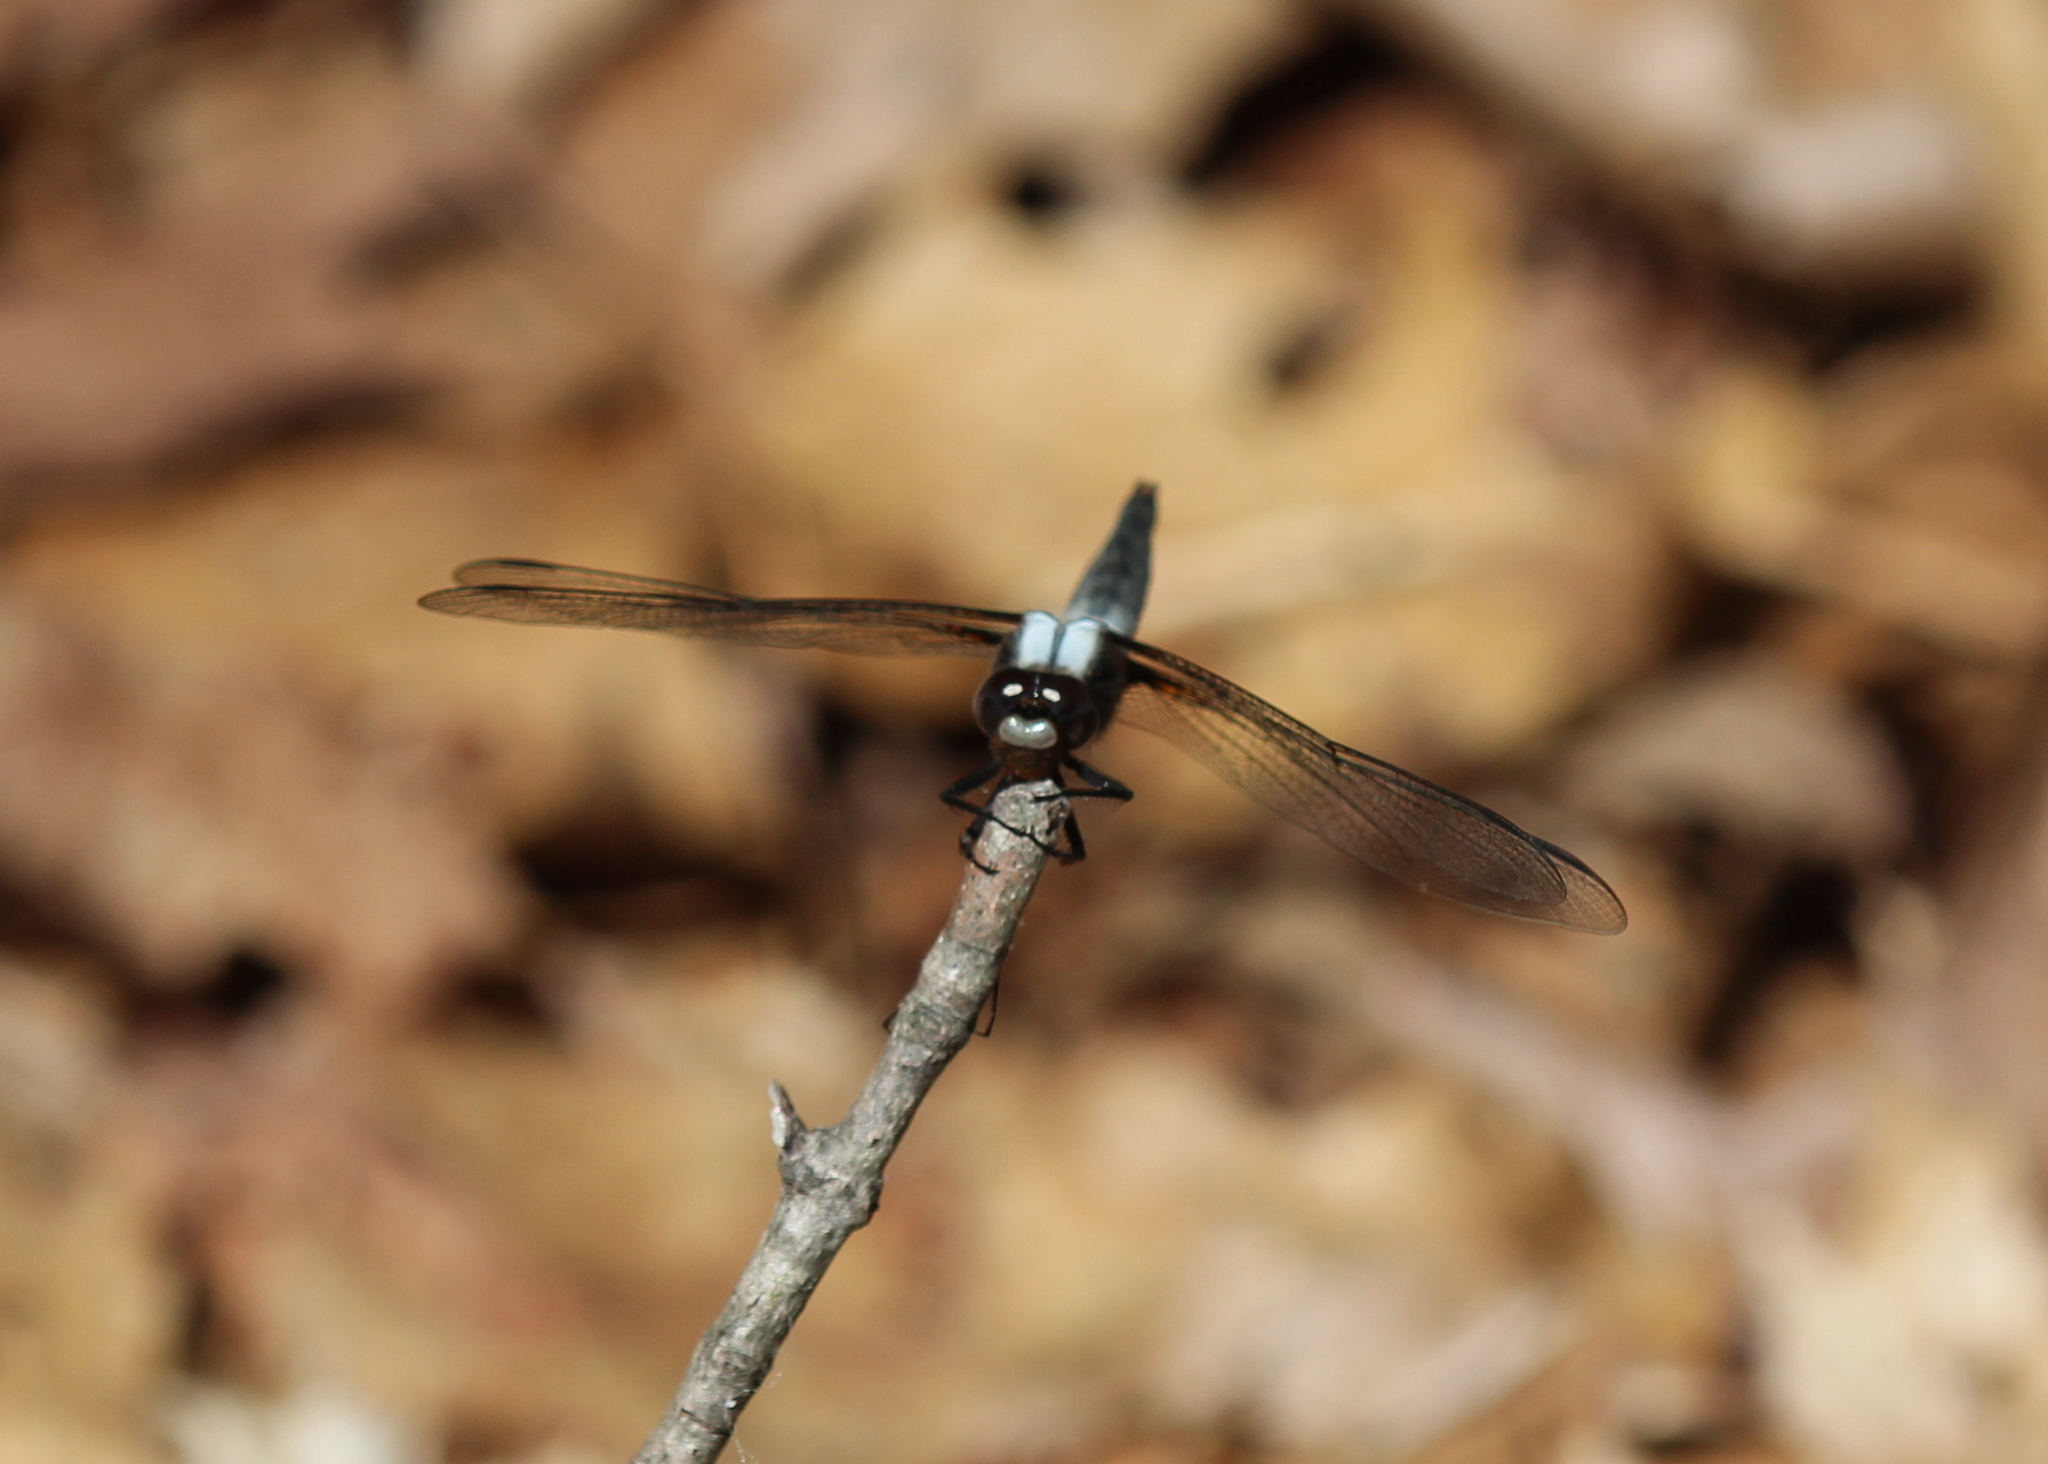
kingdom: Animalia
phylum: Arthropoda
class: Insecta
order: Odonata
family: Libellulidae
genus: Ladona
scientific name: Ladona julia
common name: Chalk-fronted corporal
